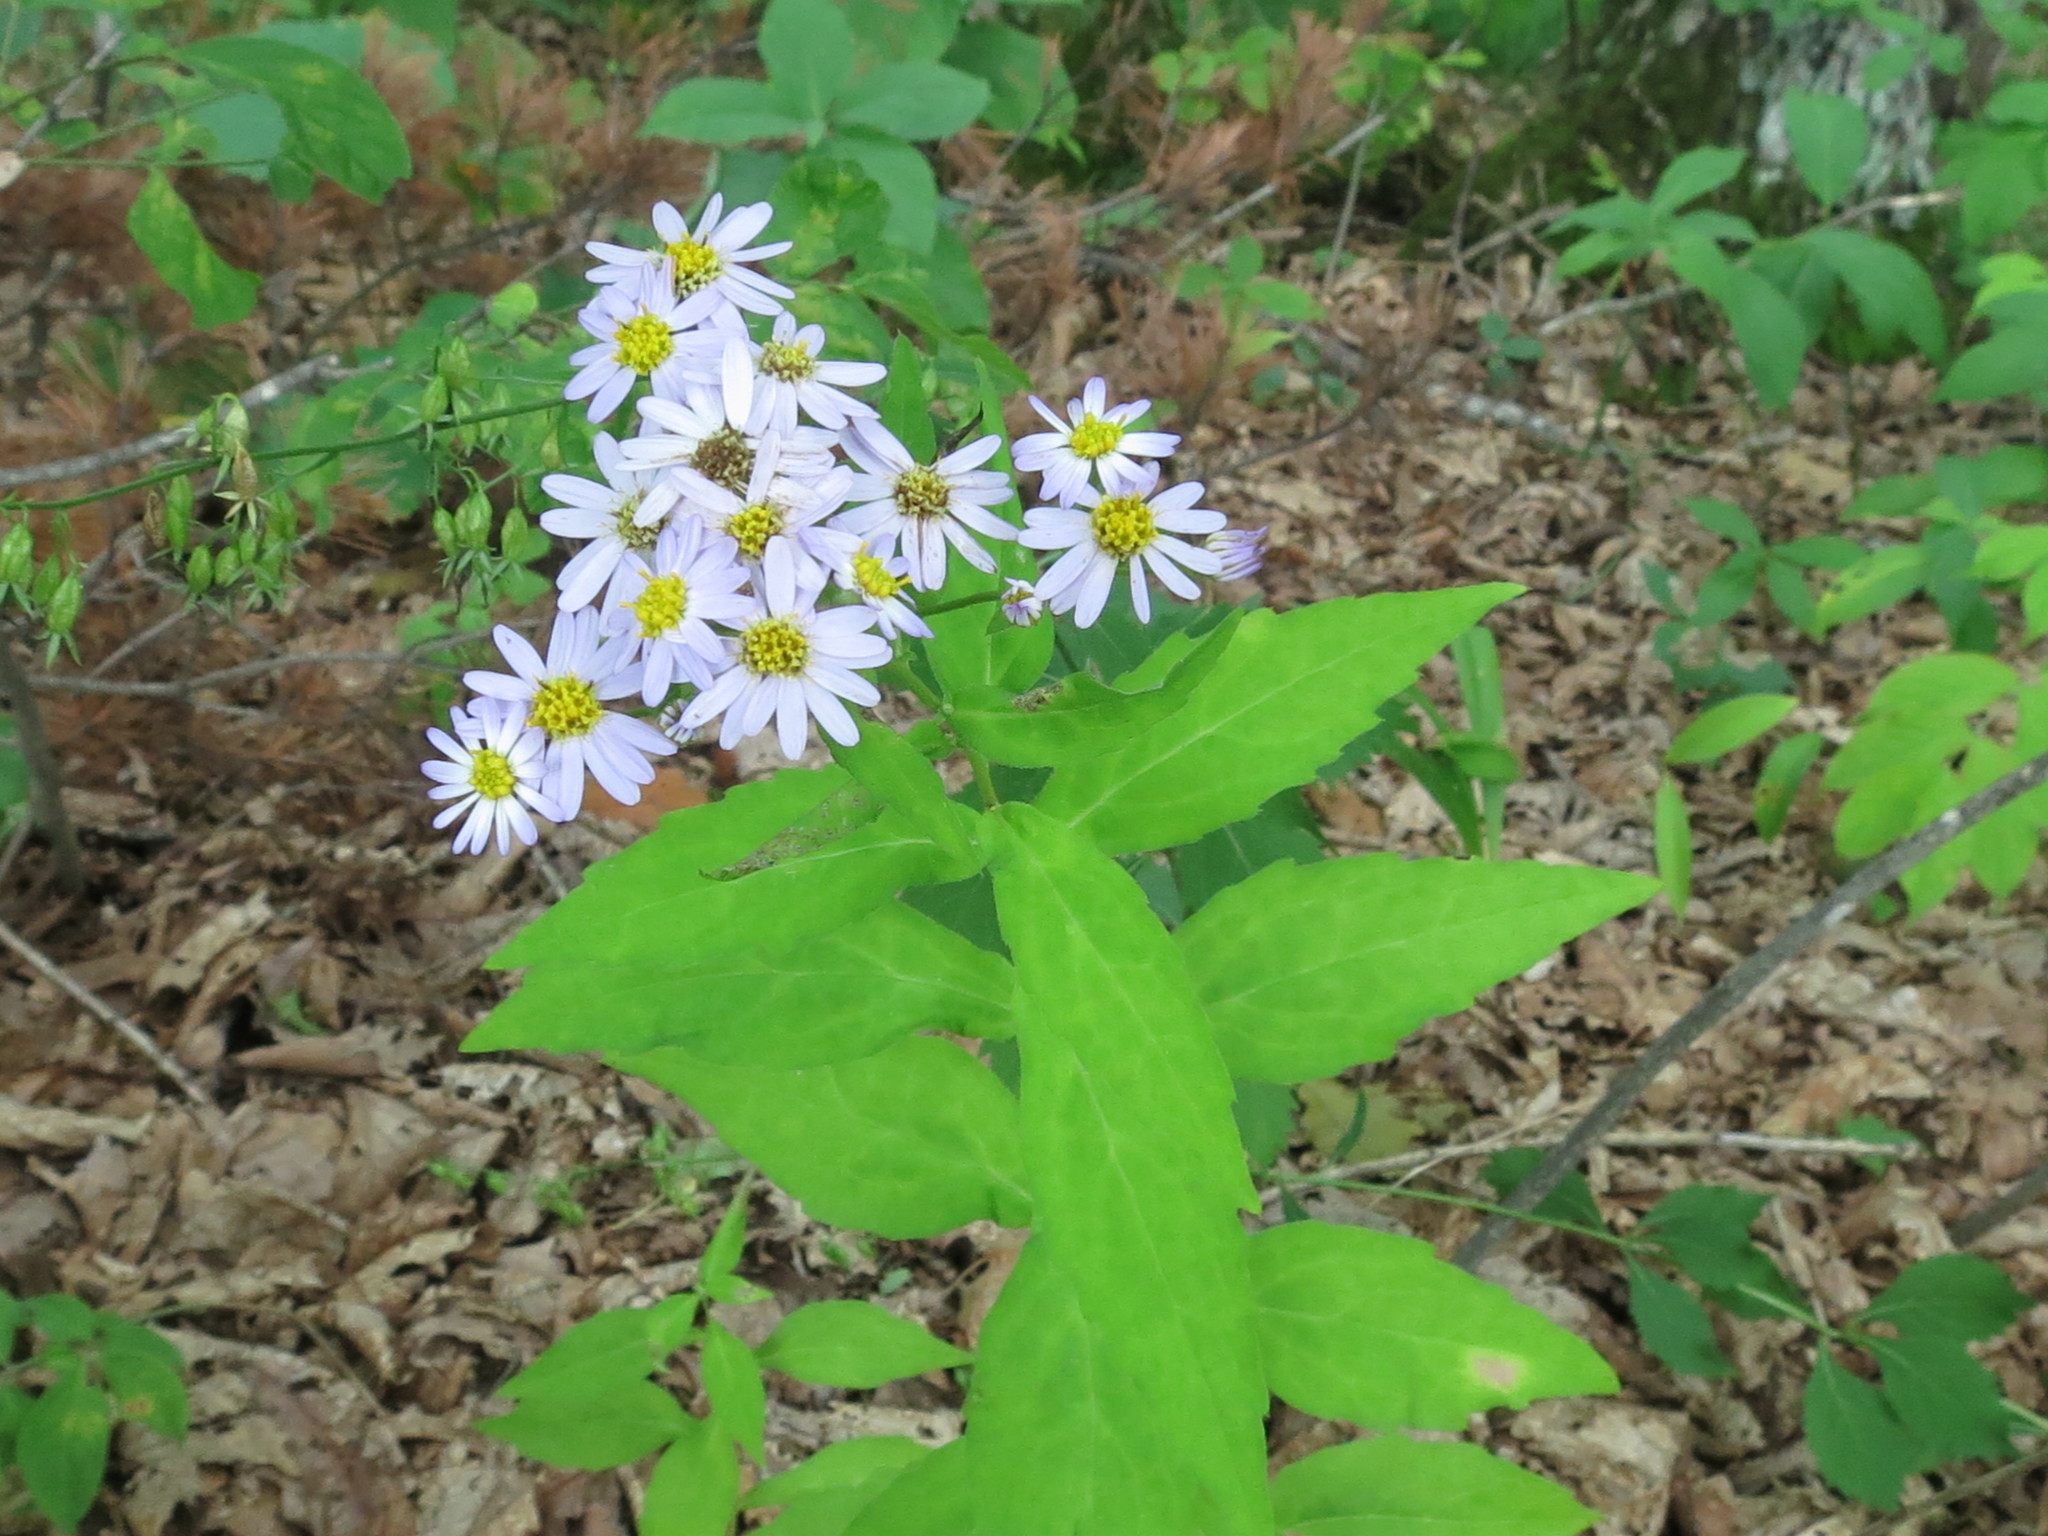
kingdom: Plantae
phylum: Tracheophyta
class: Magnoliopsida
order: Asterales
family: Asteraceae
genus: Aster
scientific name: Aster ageratoides
